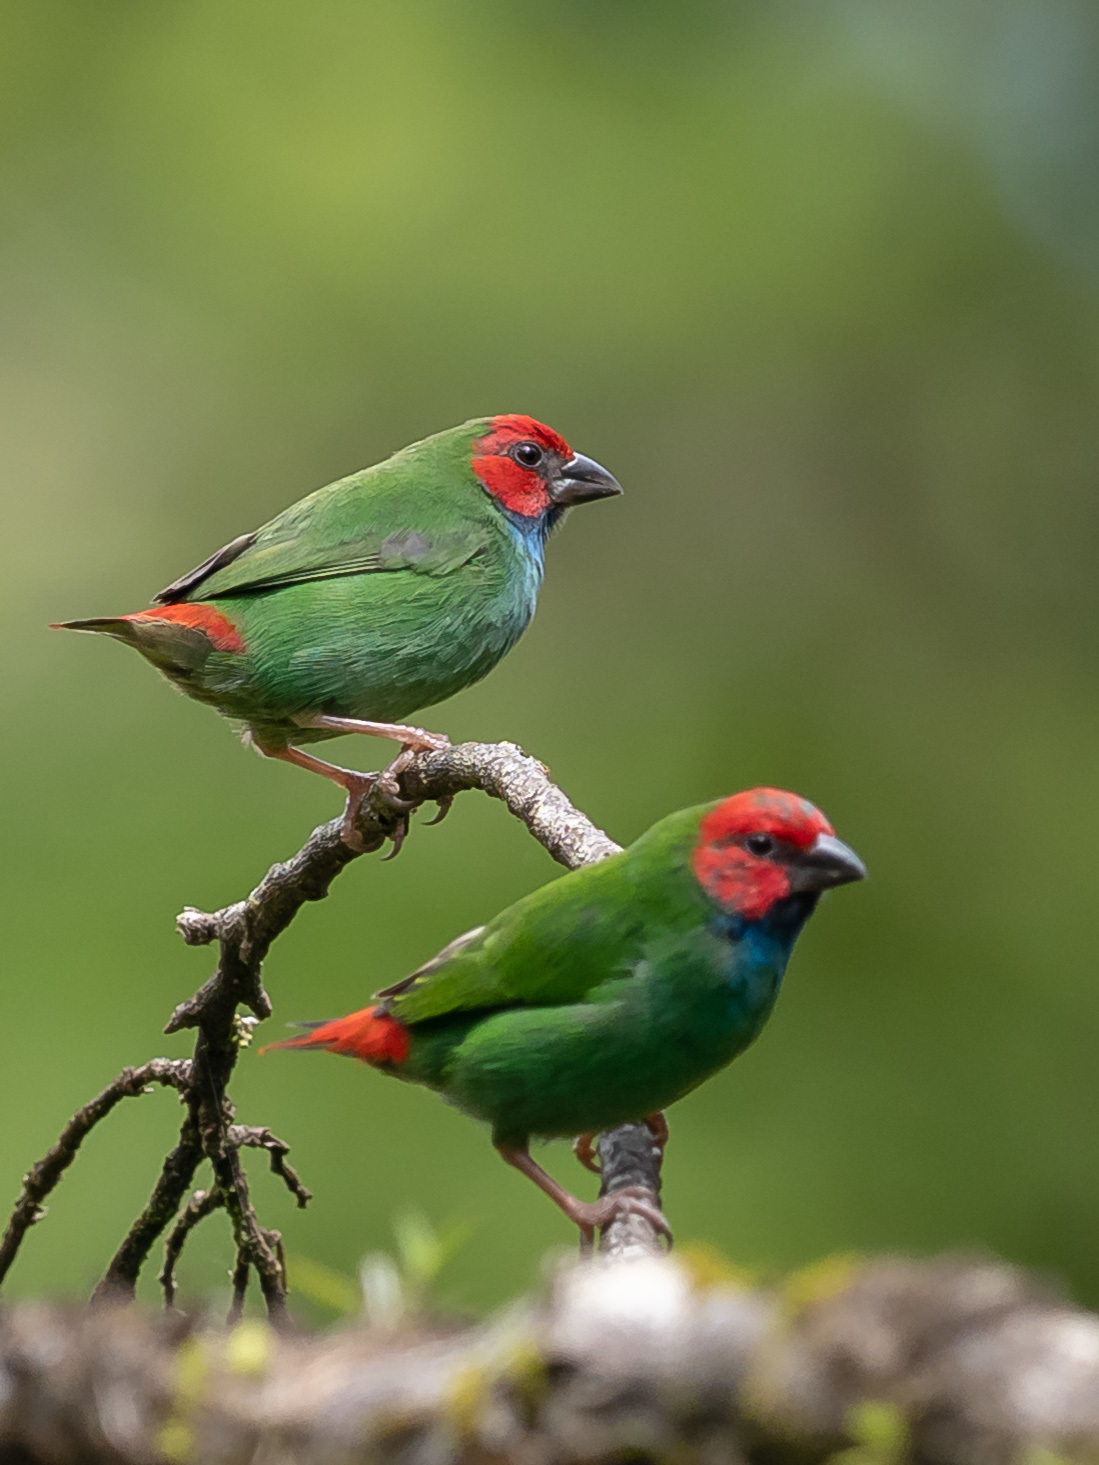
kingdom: Animalia
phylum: Chordata
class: Aves
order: Passeriformes
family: Estrildidae
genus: Erythrura
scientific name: Erythrura pealii
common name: Fiji parrotfinch
